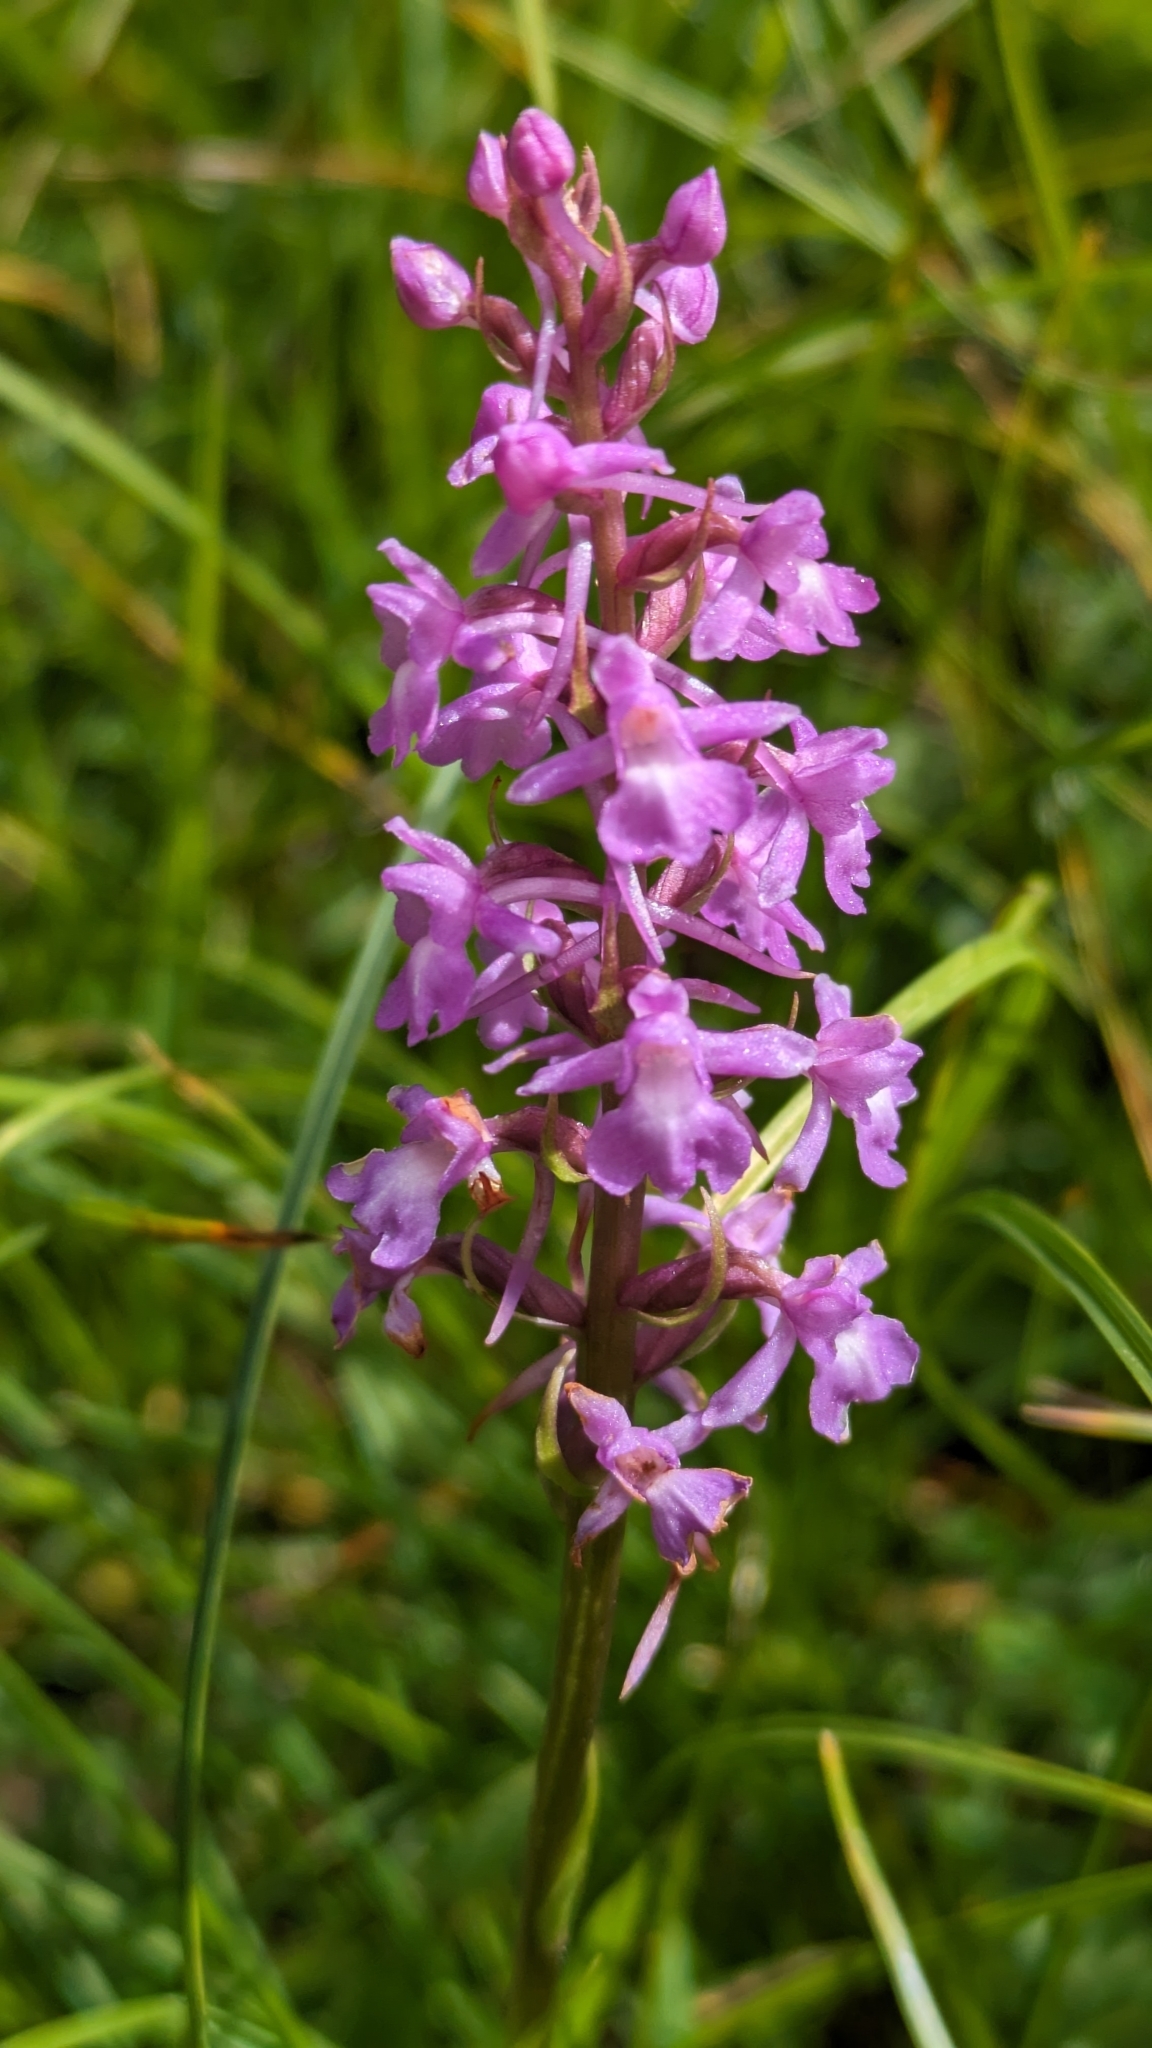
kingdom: Plantae
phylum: Tracheophyta
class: Liliopsida
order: Asparagales
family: Orchidaceae
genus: Gymnadenia
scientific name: Gymnadenia conopsea
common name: Fragrant orchid
